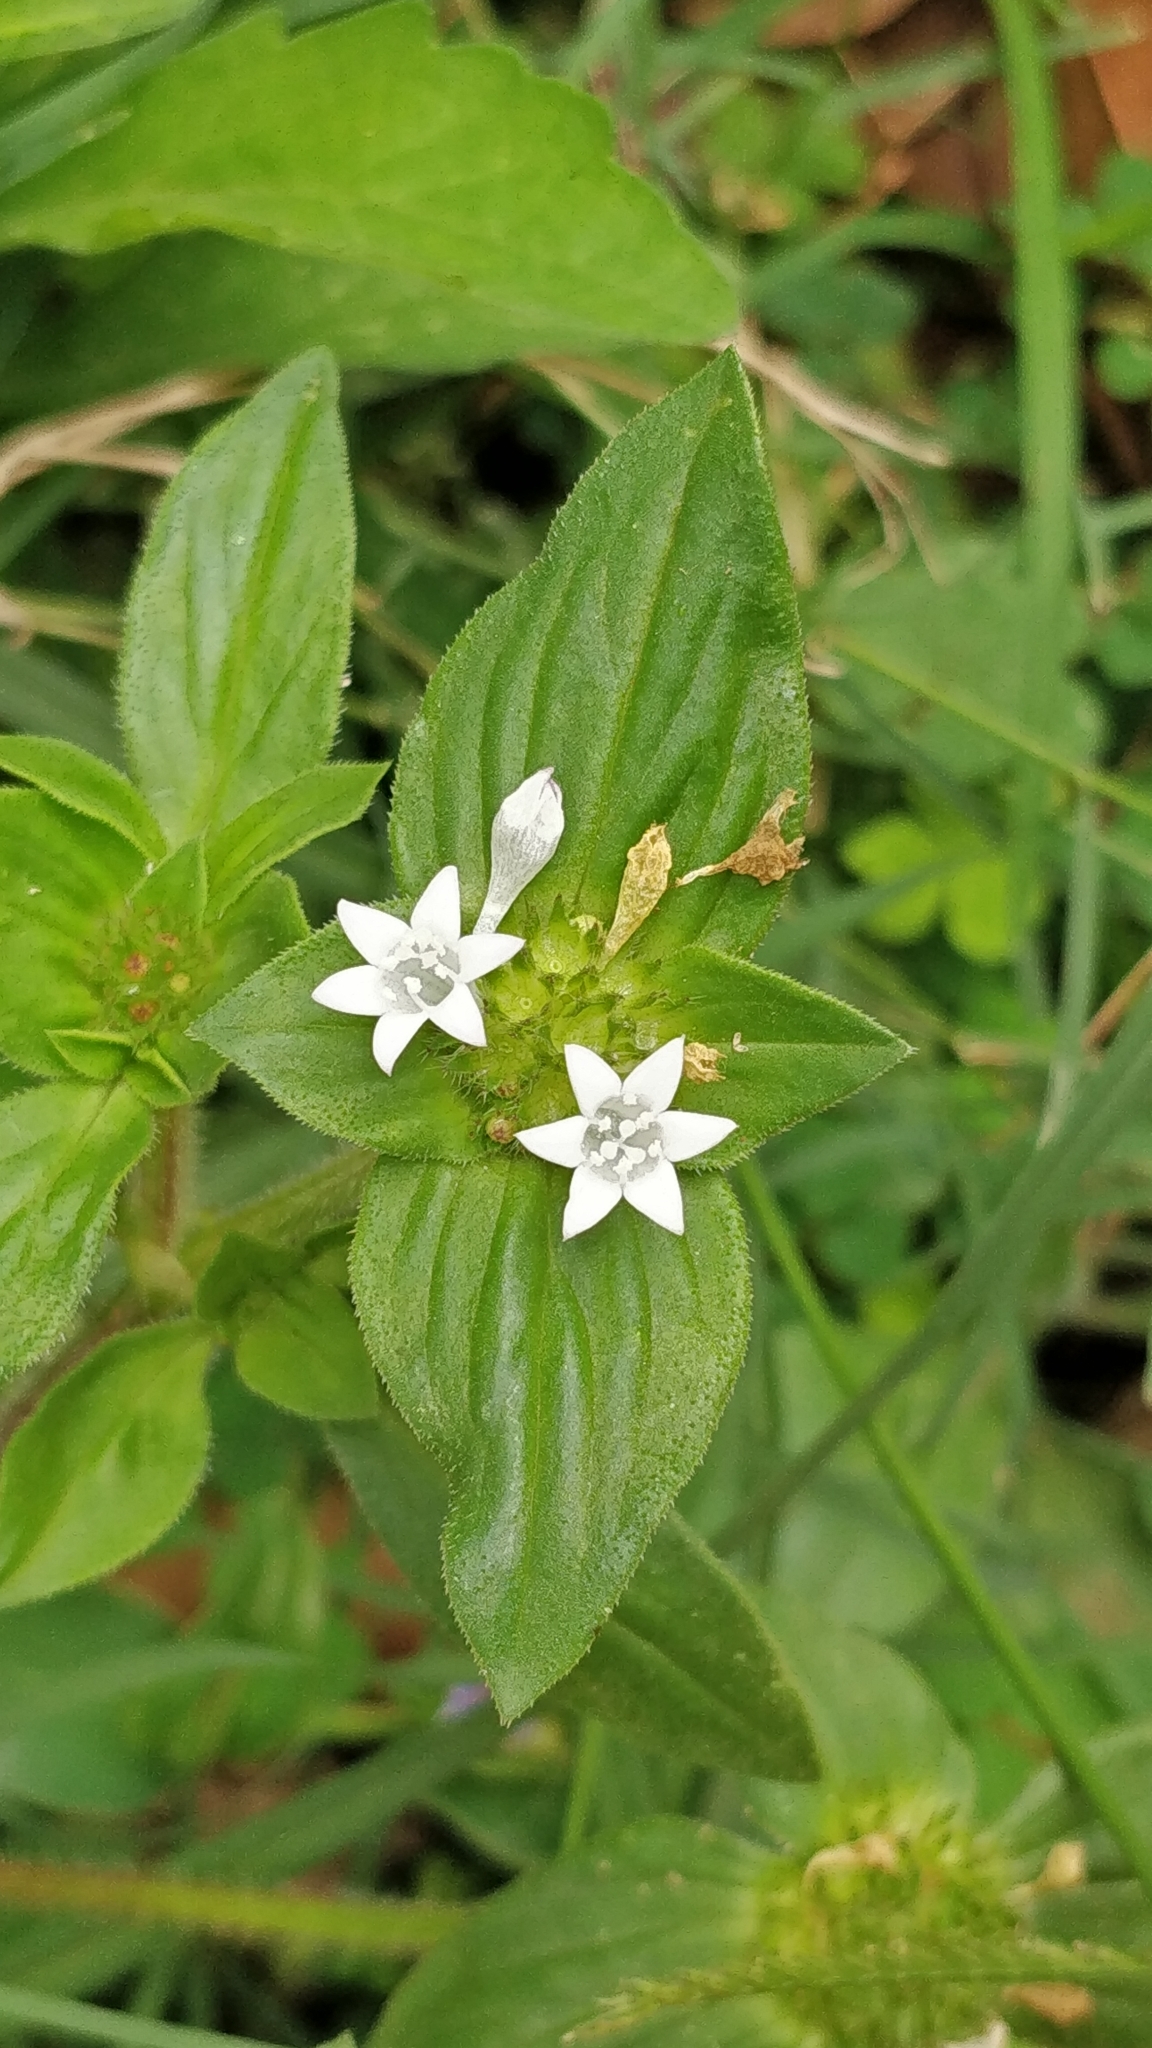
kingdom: Plantae
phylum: Tracheophyta
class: Magnoliopsida
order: Gentianales
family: Rubiaceae
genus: Richardia
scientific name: Richardia scabra
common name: Rough mexican clover
